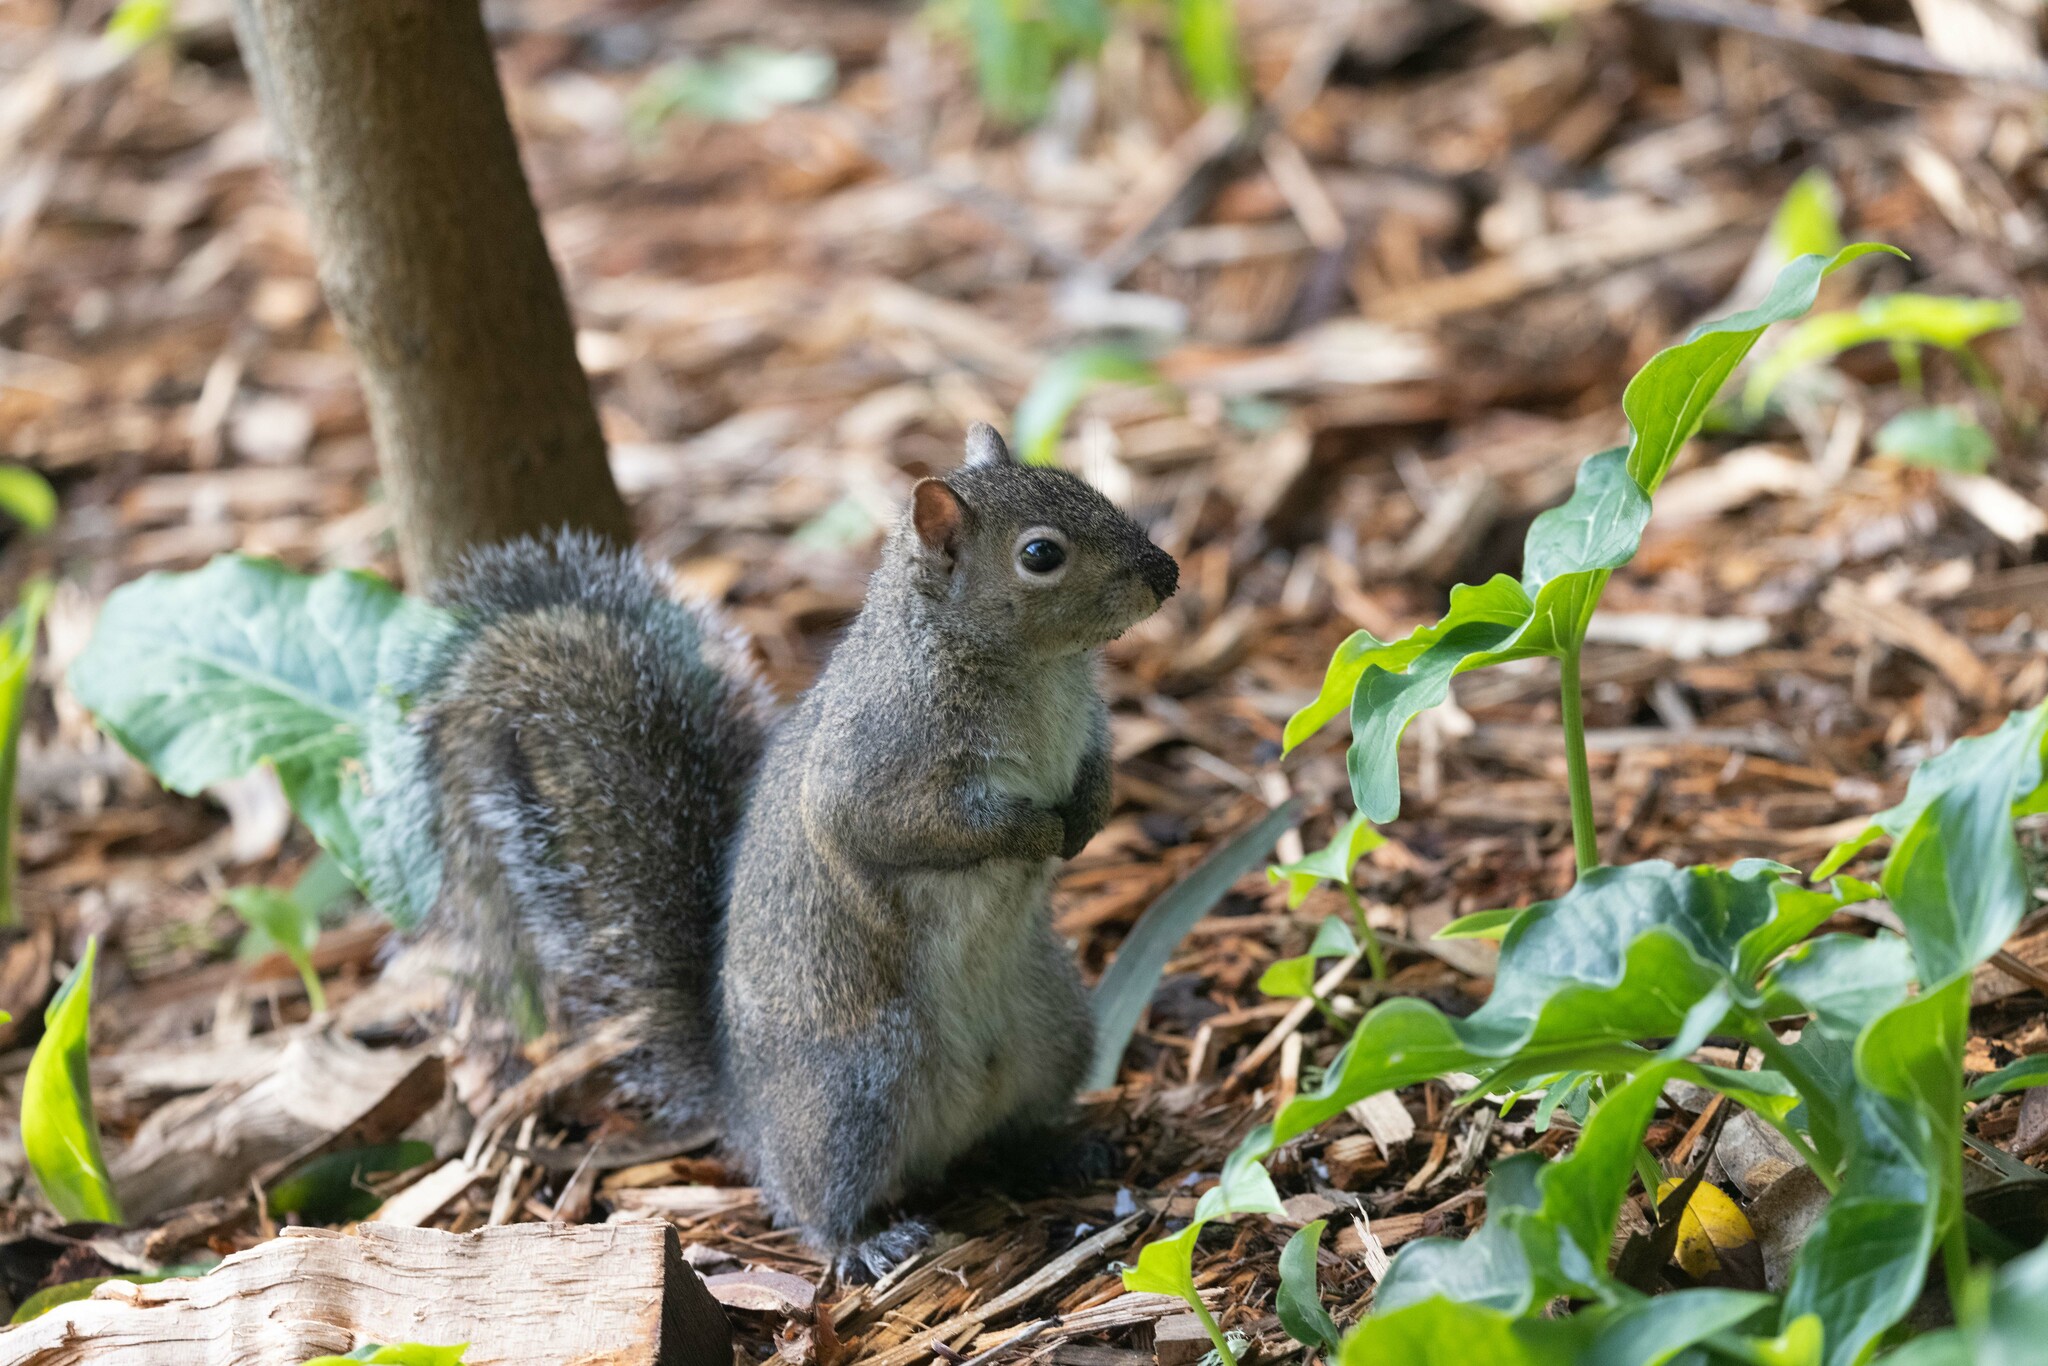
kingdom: Animalia
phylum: Chordata
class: Mammalia
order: Rodentia
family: Sciuridae
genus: Sciurus
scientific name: Sciurus carolinensis
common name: Eastern gray squirrel
